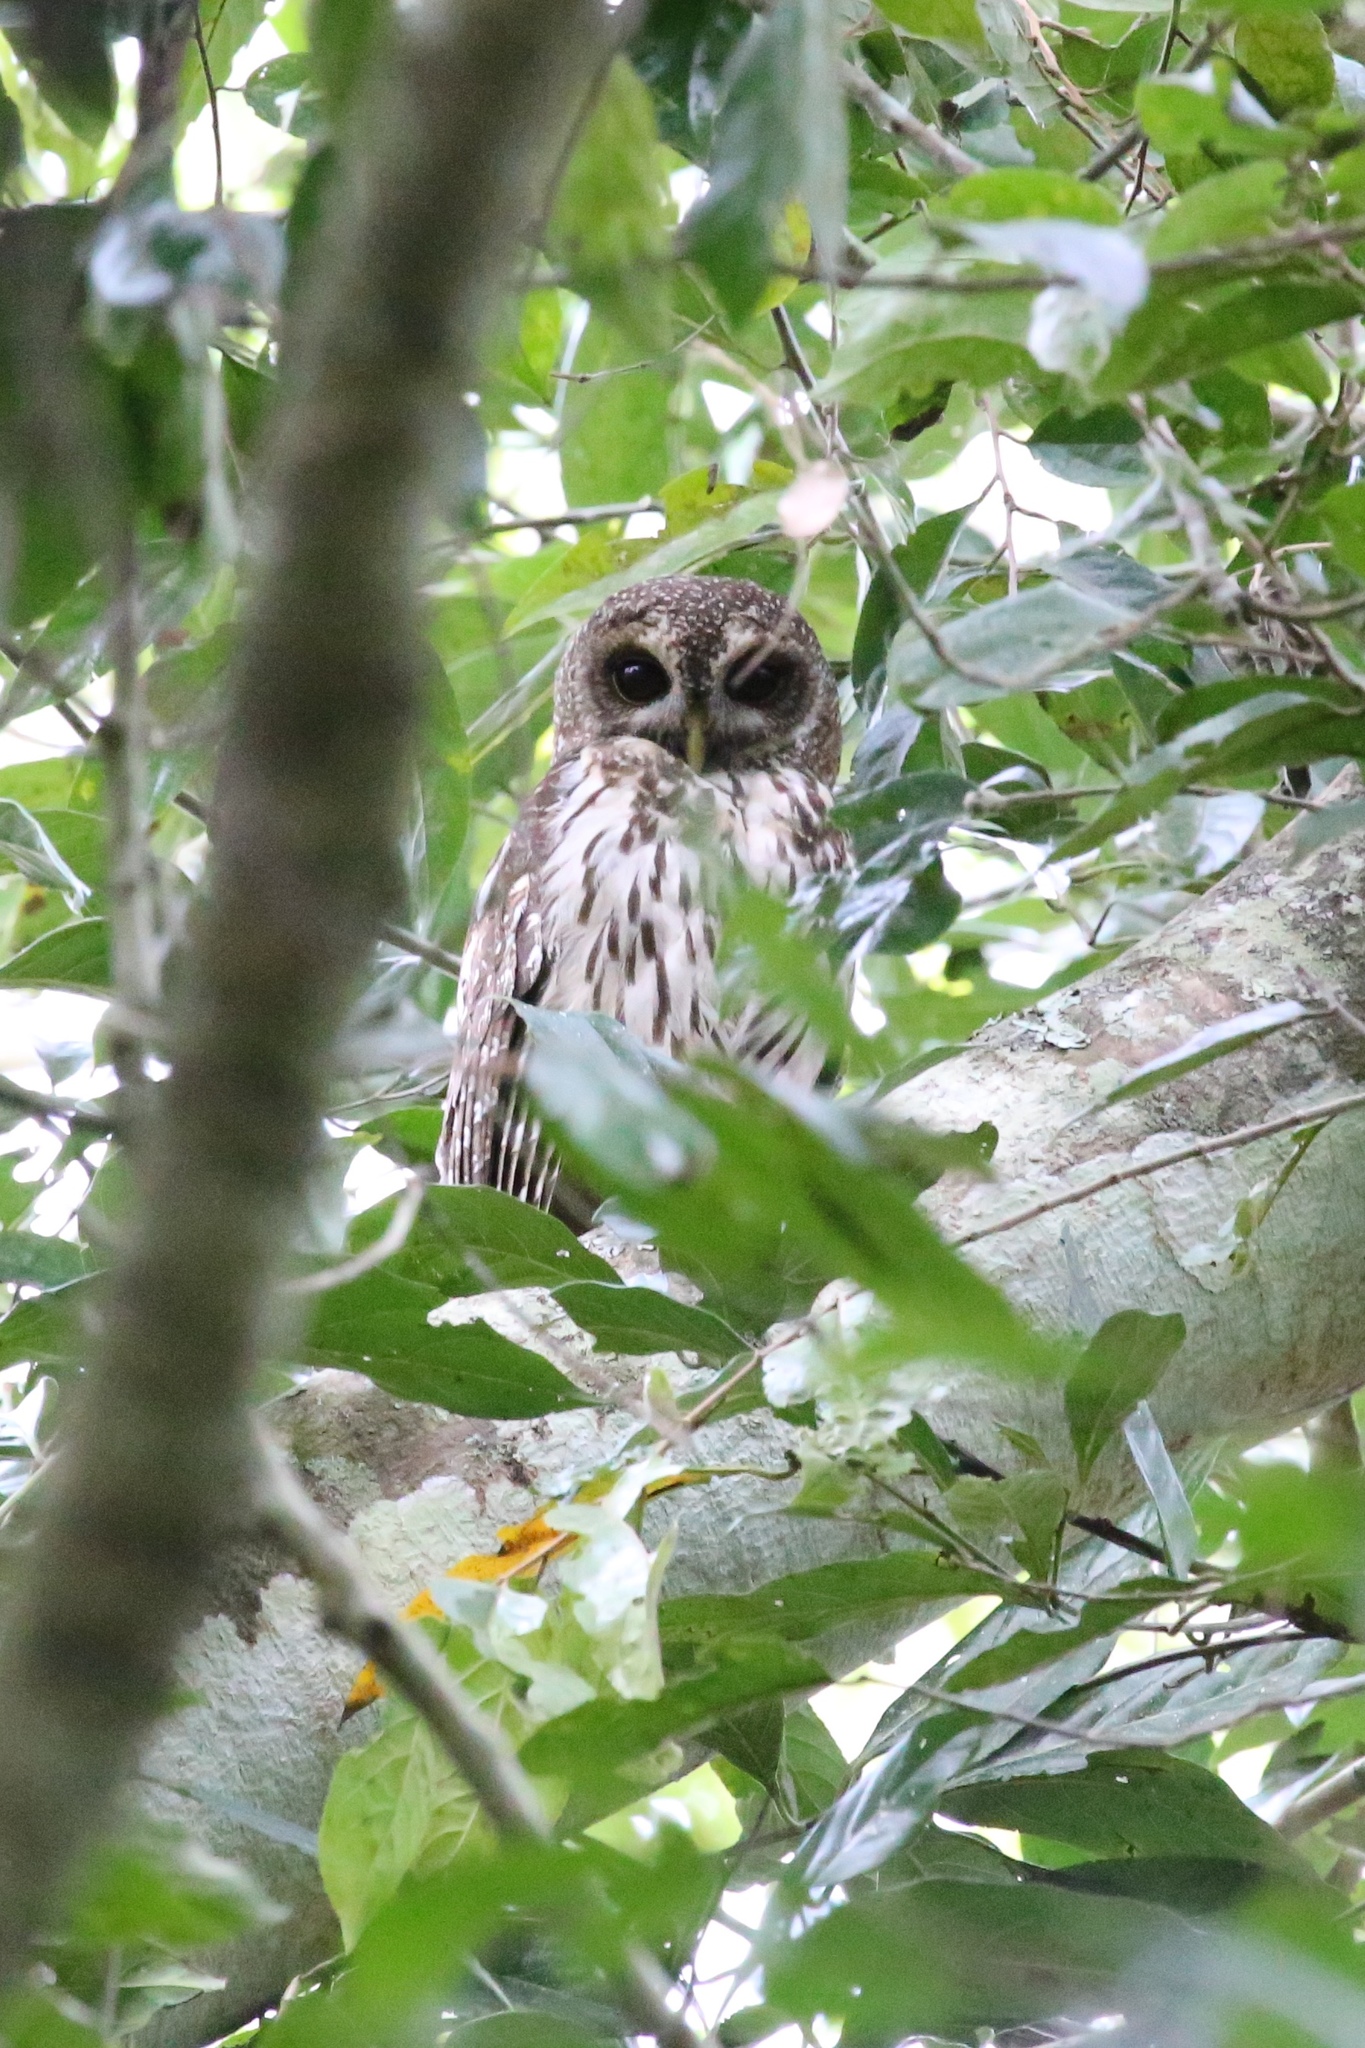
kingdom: Animalia
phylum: Chordata
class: Aves
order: Strigiformes
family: Strigidae
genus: Strix
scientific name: Strix virgata
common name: Mottled owl
